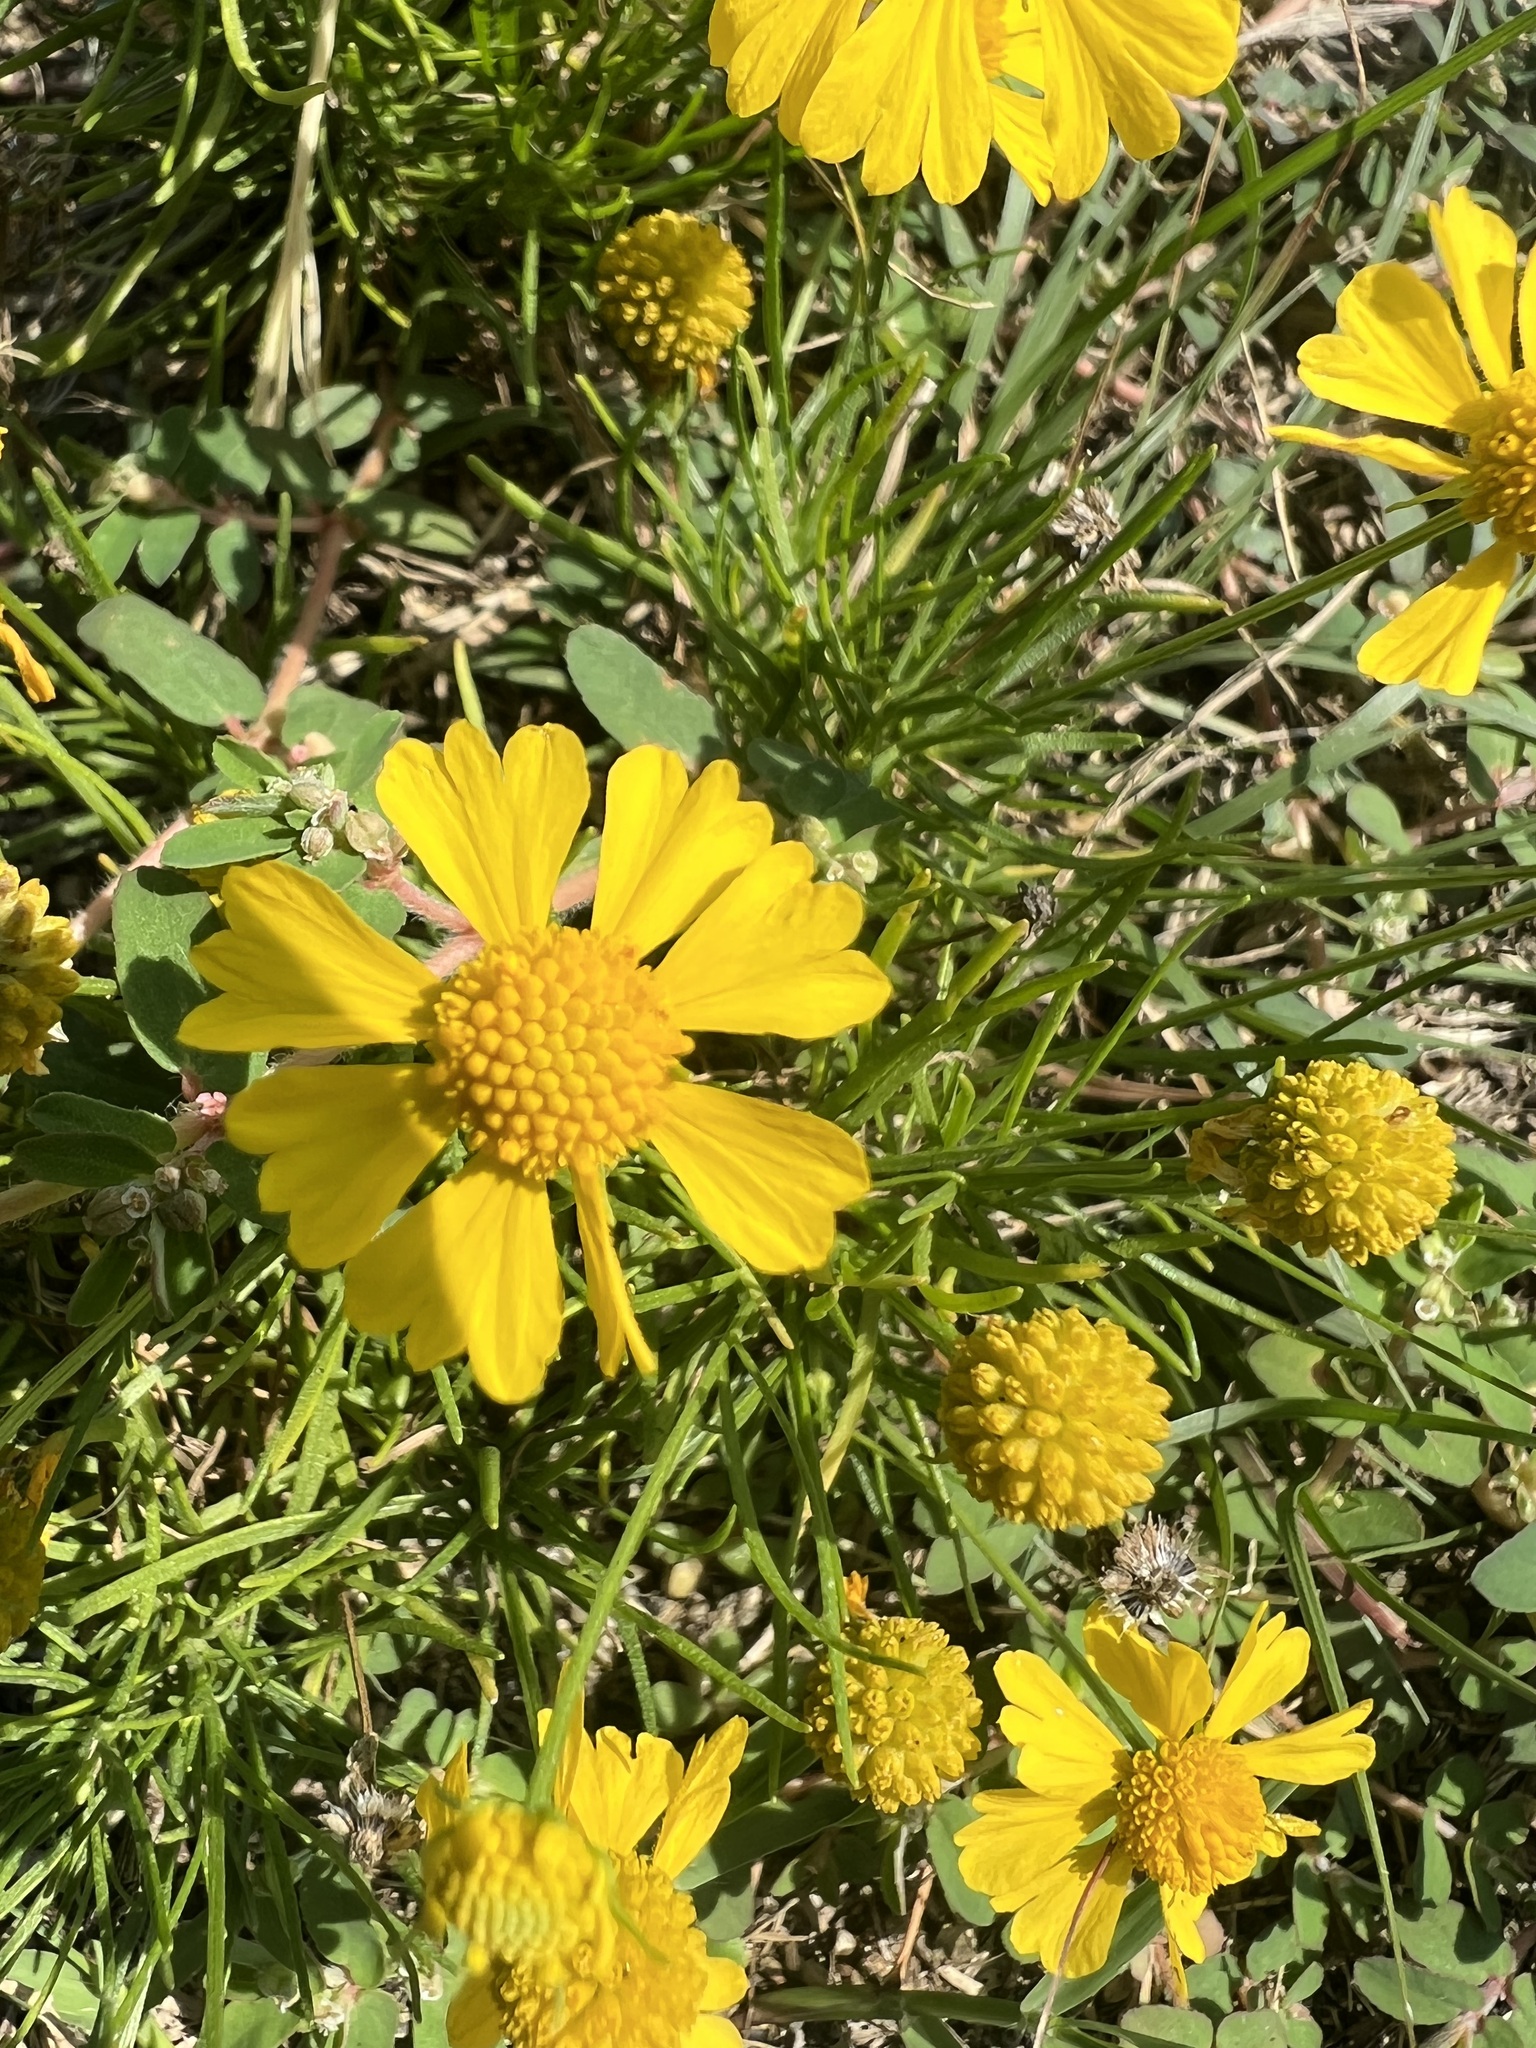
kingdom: Plantae
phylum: Tracheophyta
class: Magnoliopsida
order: Asterales
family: Asteraceae
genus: Helenium
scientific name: Helenium amarum
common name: Bitter sneezeweed
